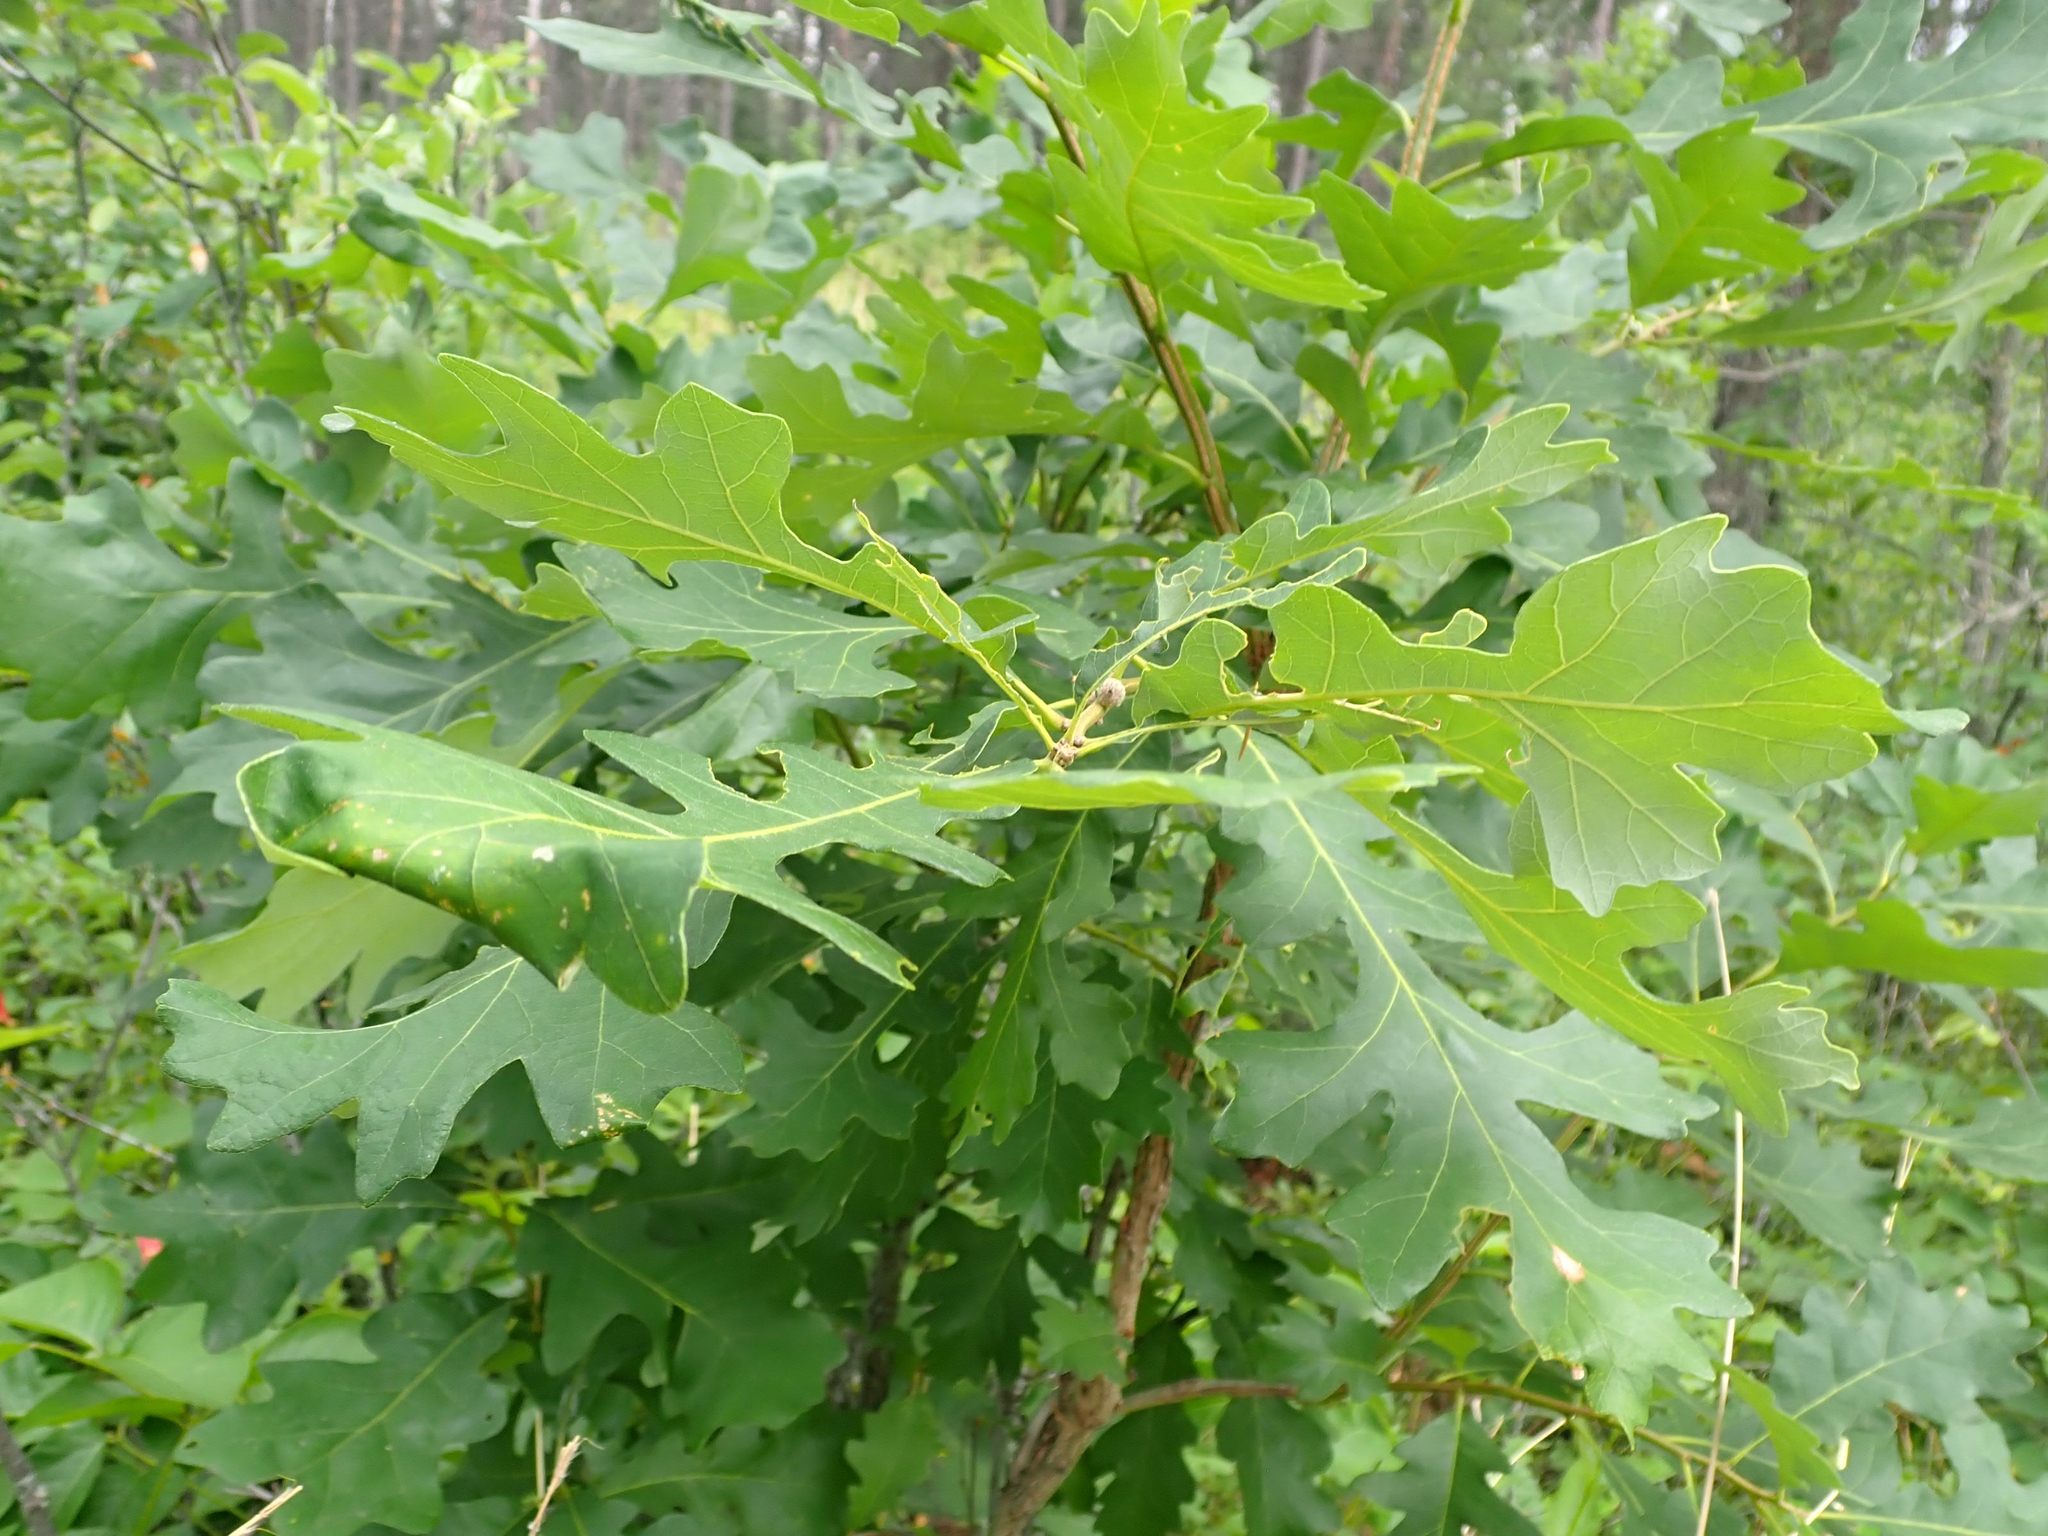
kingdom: Plantae
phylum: Tracheophyta
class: Magnoliopsida
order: Fagales
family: Fagaceae
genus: Quercus
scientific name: Quercus macrocarpa
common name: Bur oak
